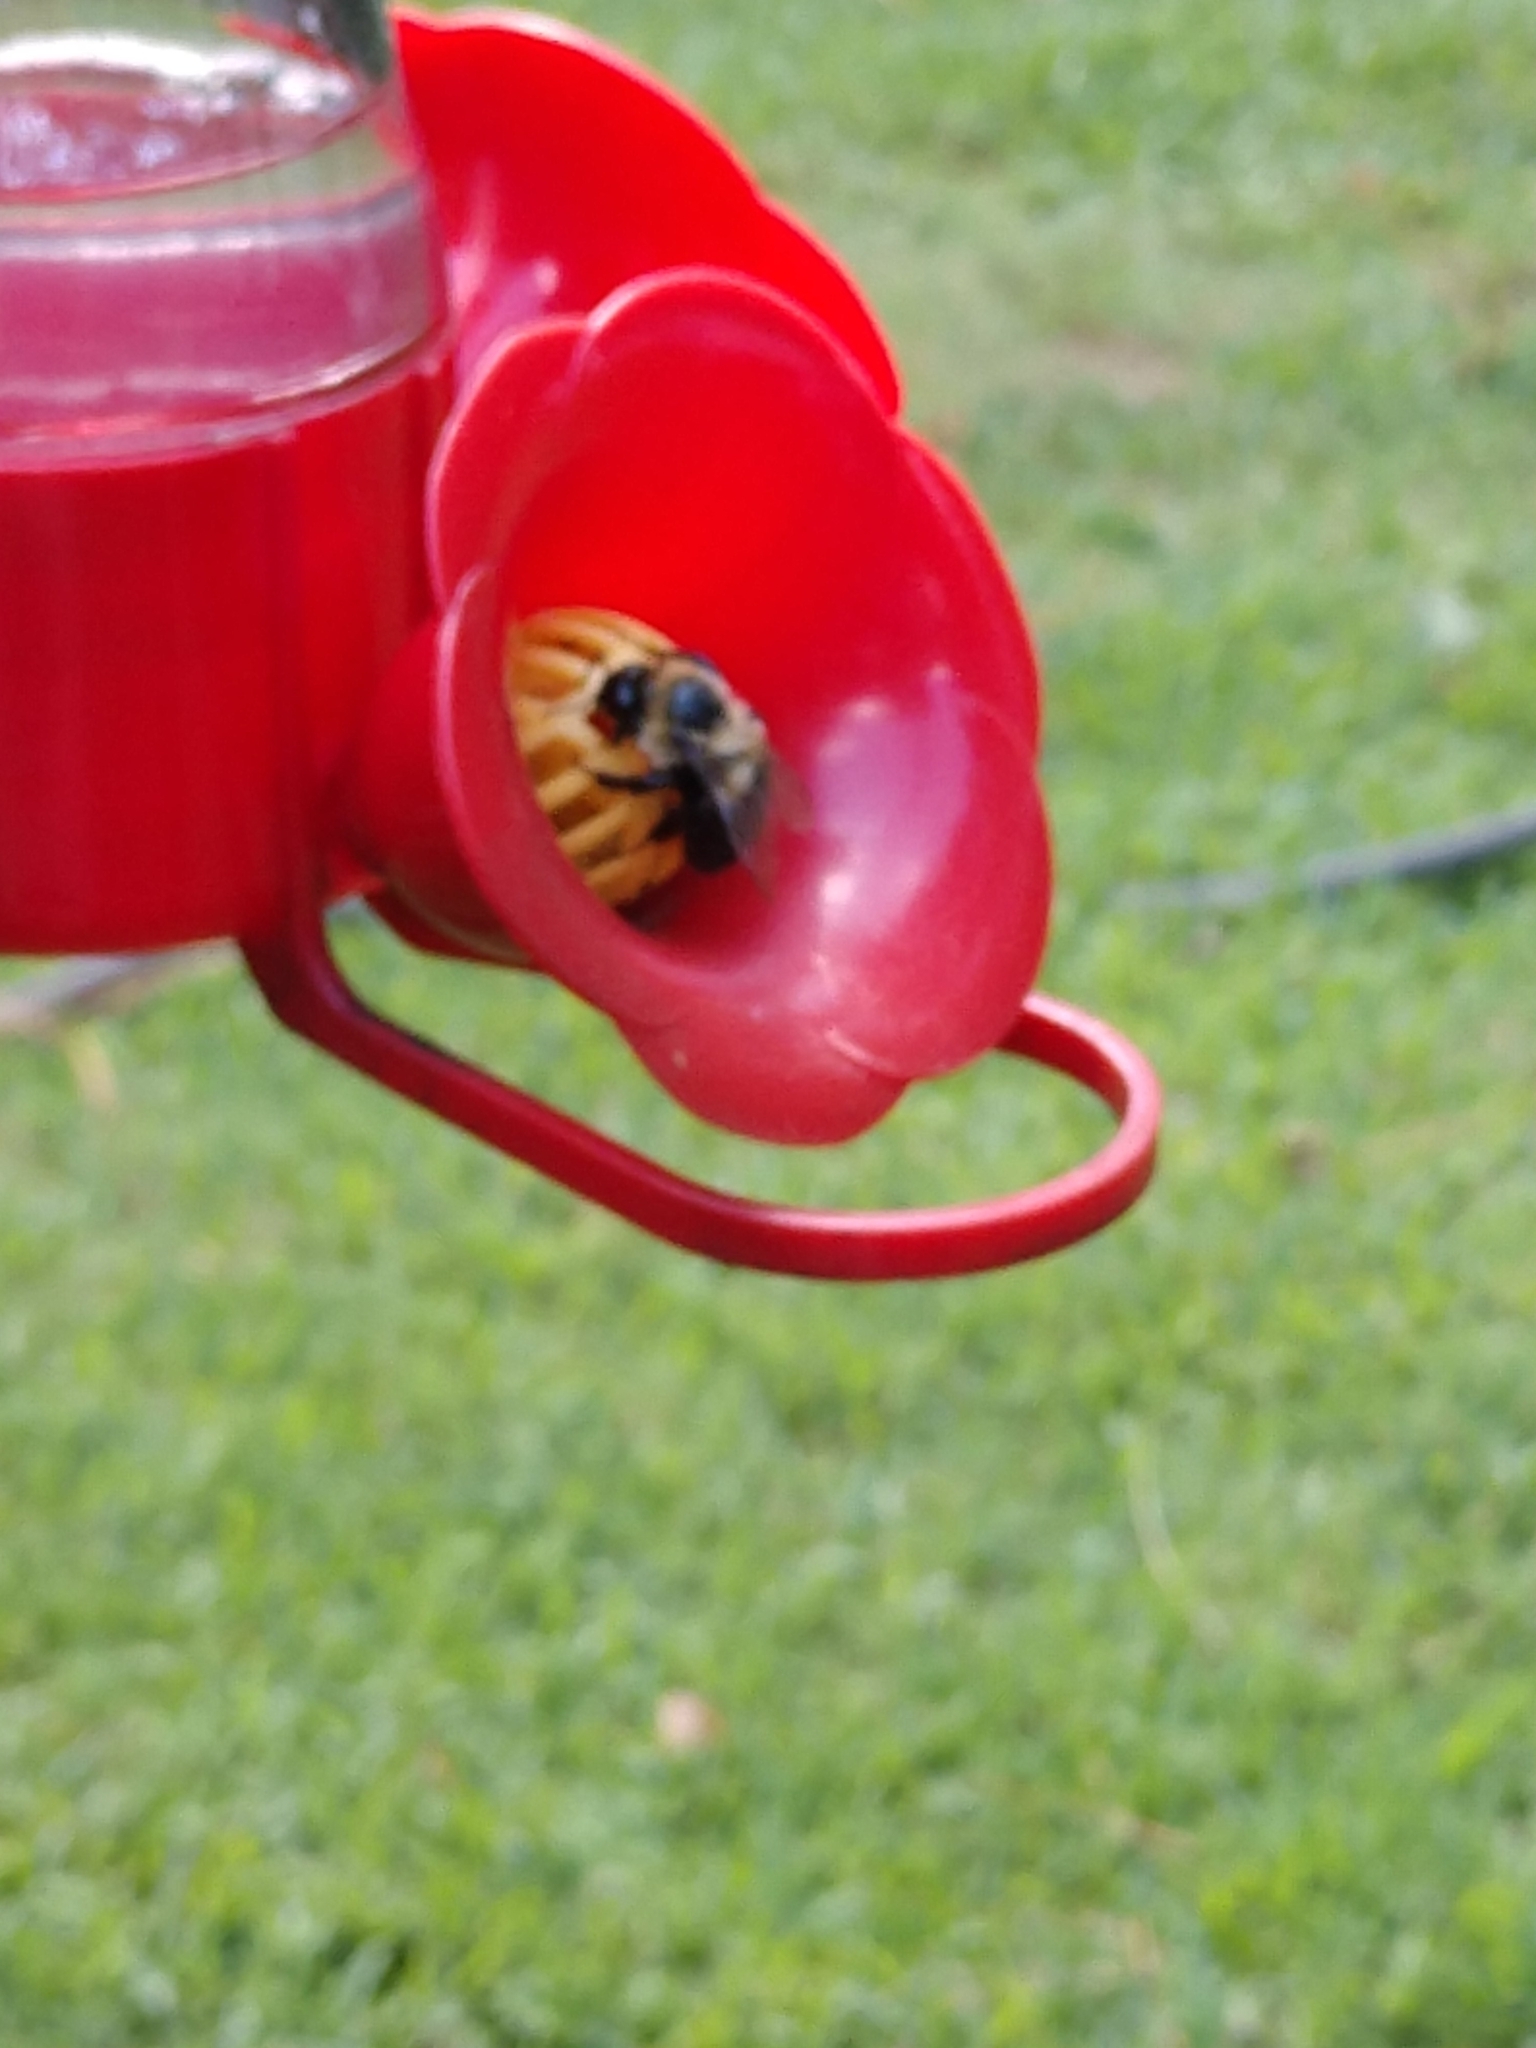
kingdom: Animalia
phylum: Arthropoda
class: Insecta
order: Hymenoptera
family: Apidae
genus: Bombus
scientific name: Bombus impatiens
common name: Common eastern bumble bee
